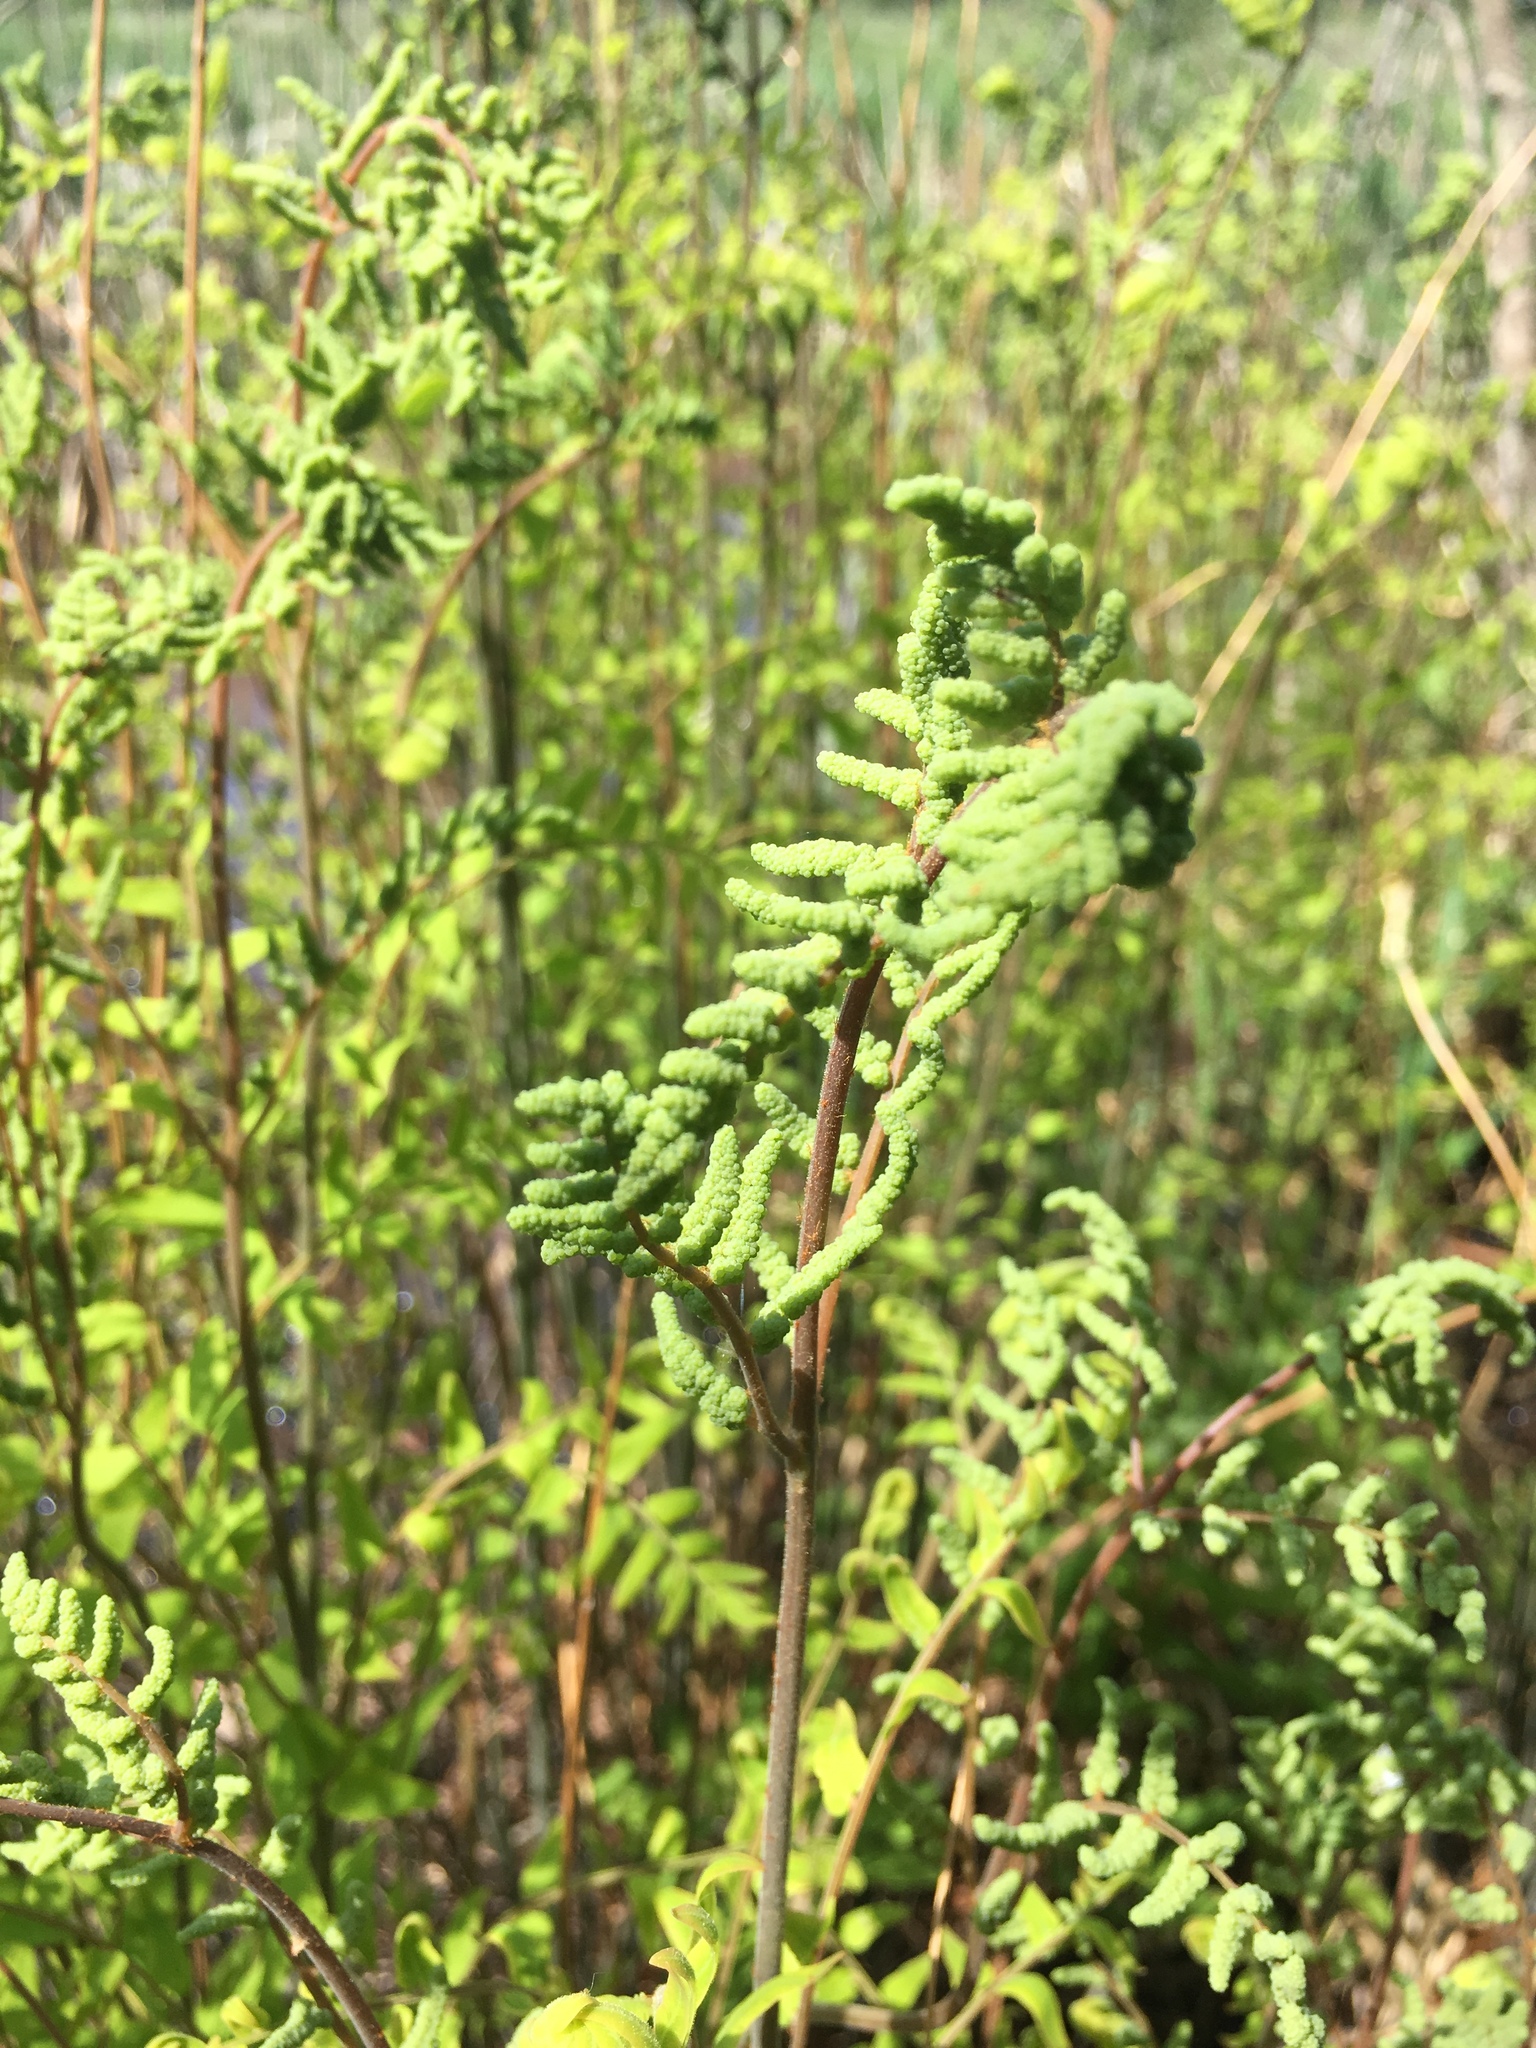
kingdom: Plantae
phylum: Tracheophyta
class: Polypodiopsida
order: Osmundales
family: Osmundaceae
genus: Osmunda
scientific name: Osmunda spectabilis
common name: American royal fern
